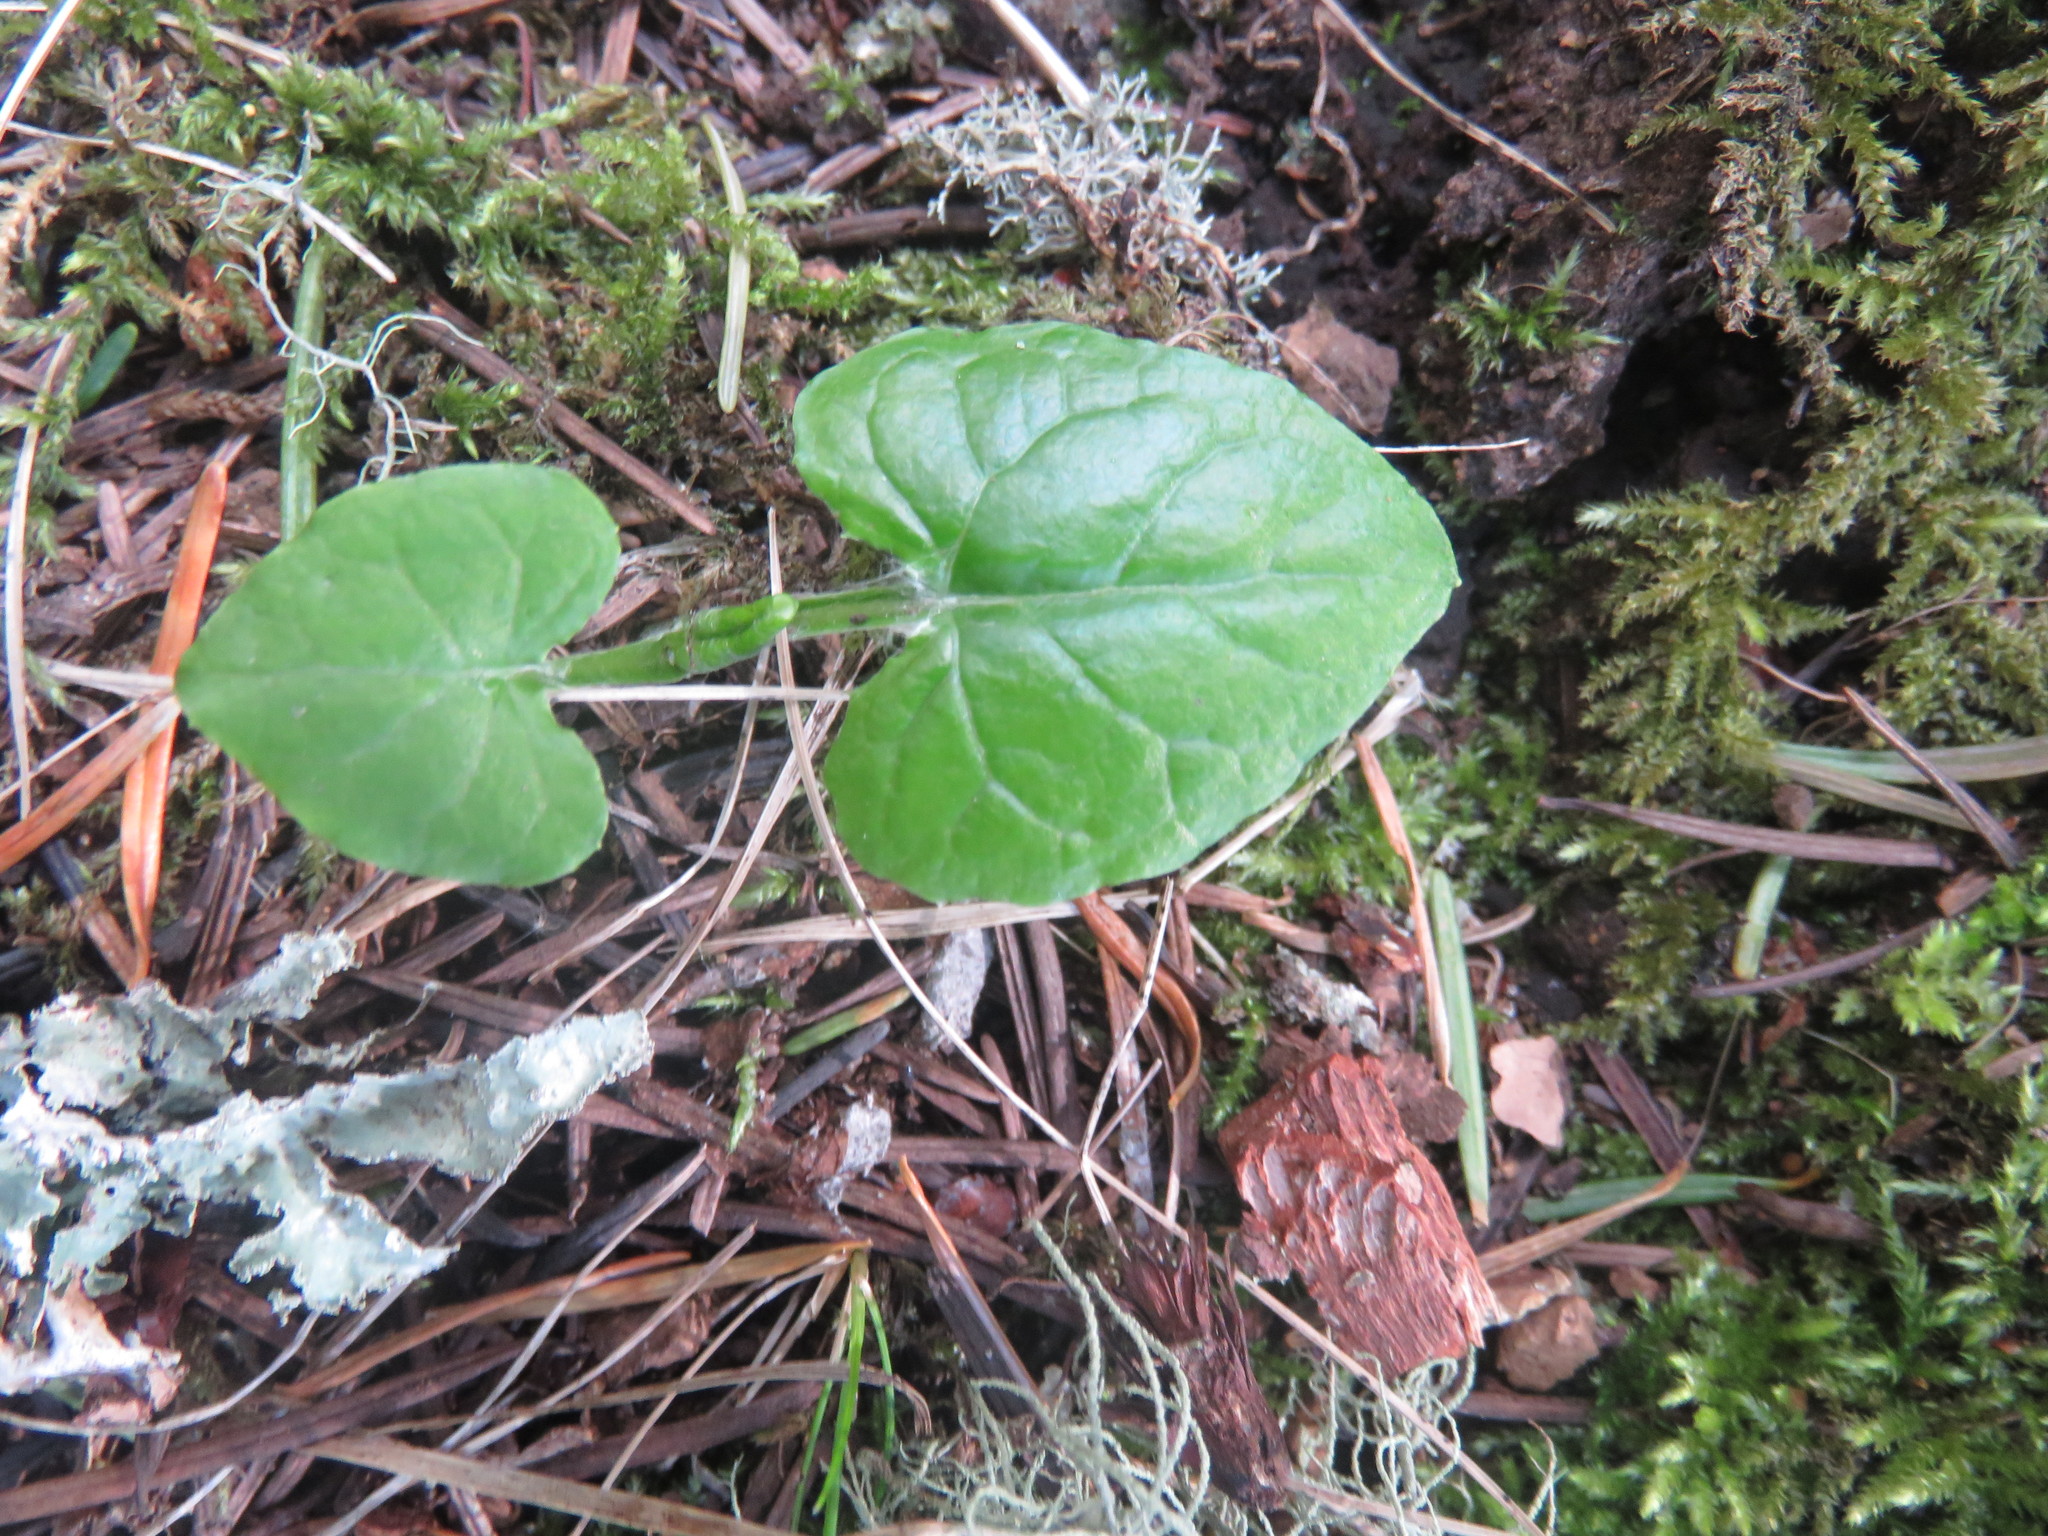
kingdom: Plantae
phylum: Tracheophyta
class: Magnoliopsida
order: Asterales
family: Asteraceae
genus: Adenocaulon
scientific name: Adenocaulon bicolor
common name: Trailplant
